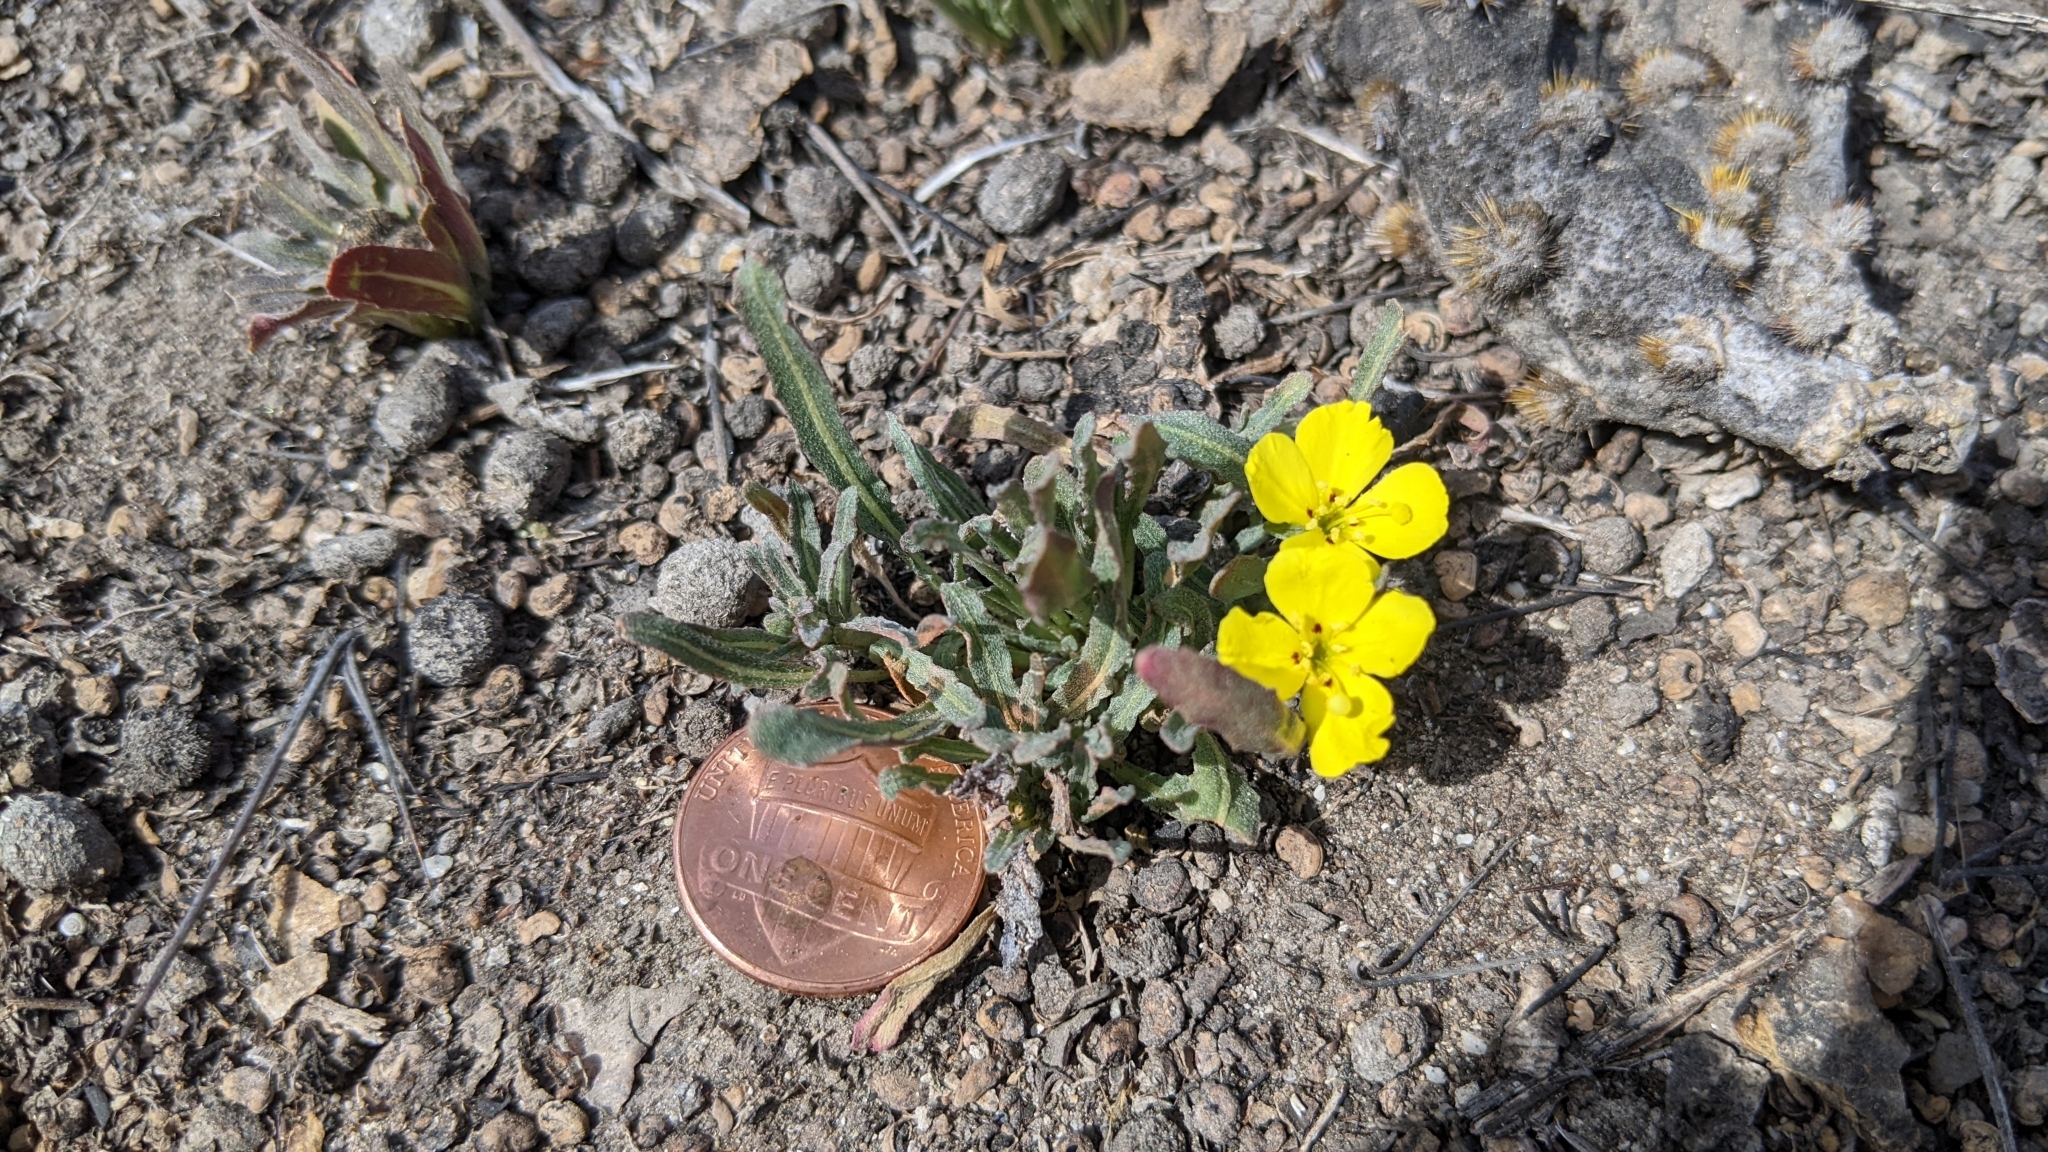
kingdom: Plantae
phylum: Tracheophyta
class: Magnoliopsida
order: Myrtales
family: Onagraceae
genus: Camissoniopsis
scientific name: Camissoniopsis bistorta
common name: Southern suncup
